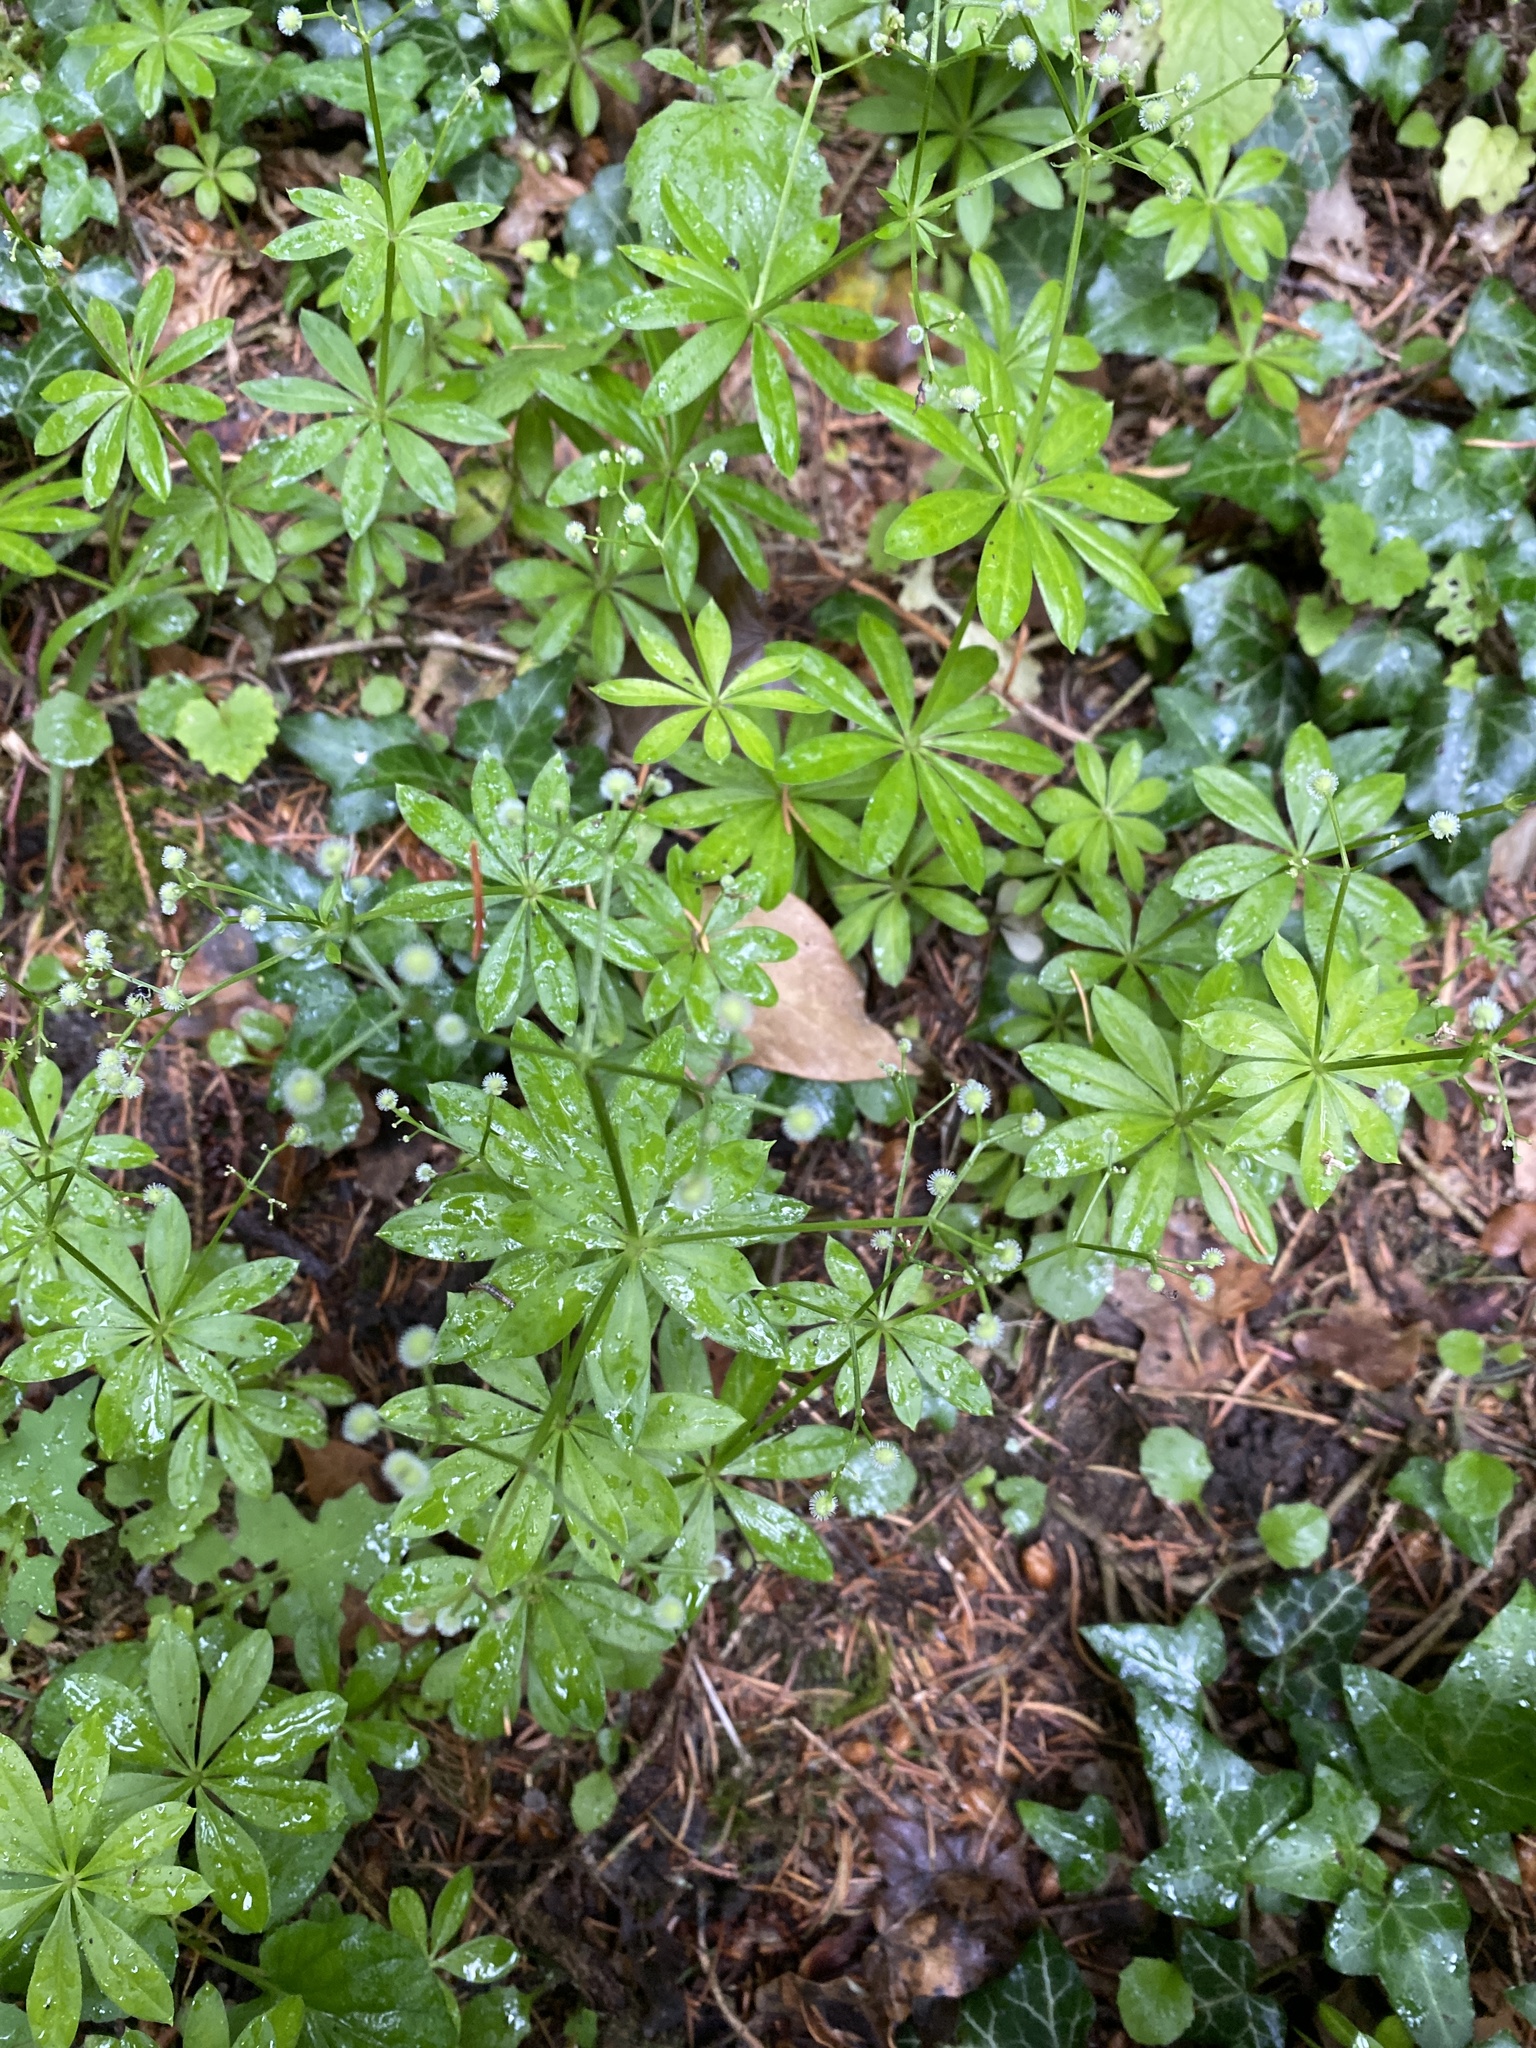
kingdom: Plantae
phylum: Tracheophyta
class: Magnoliopsida
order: Gentianales
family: Rubiaceae
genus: Galium
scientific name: Galium odoratum
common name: Sweet woodruff
